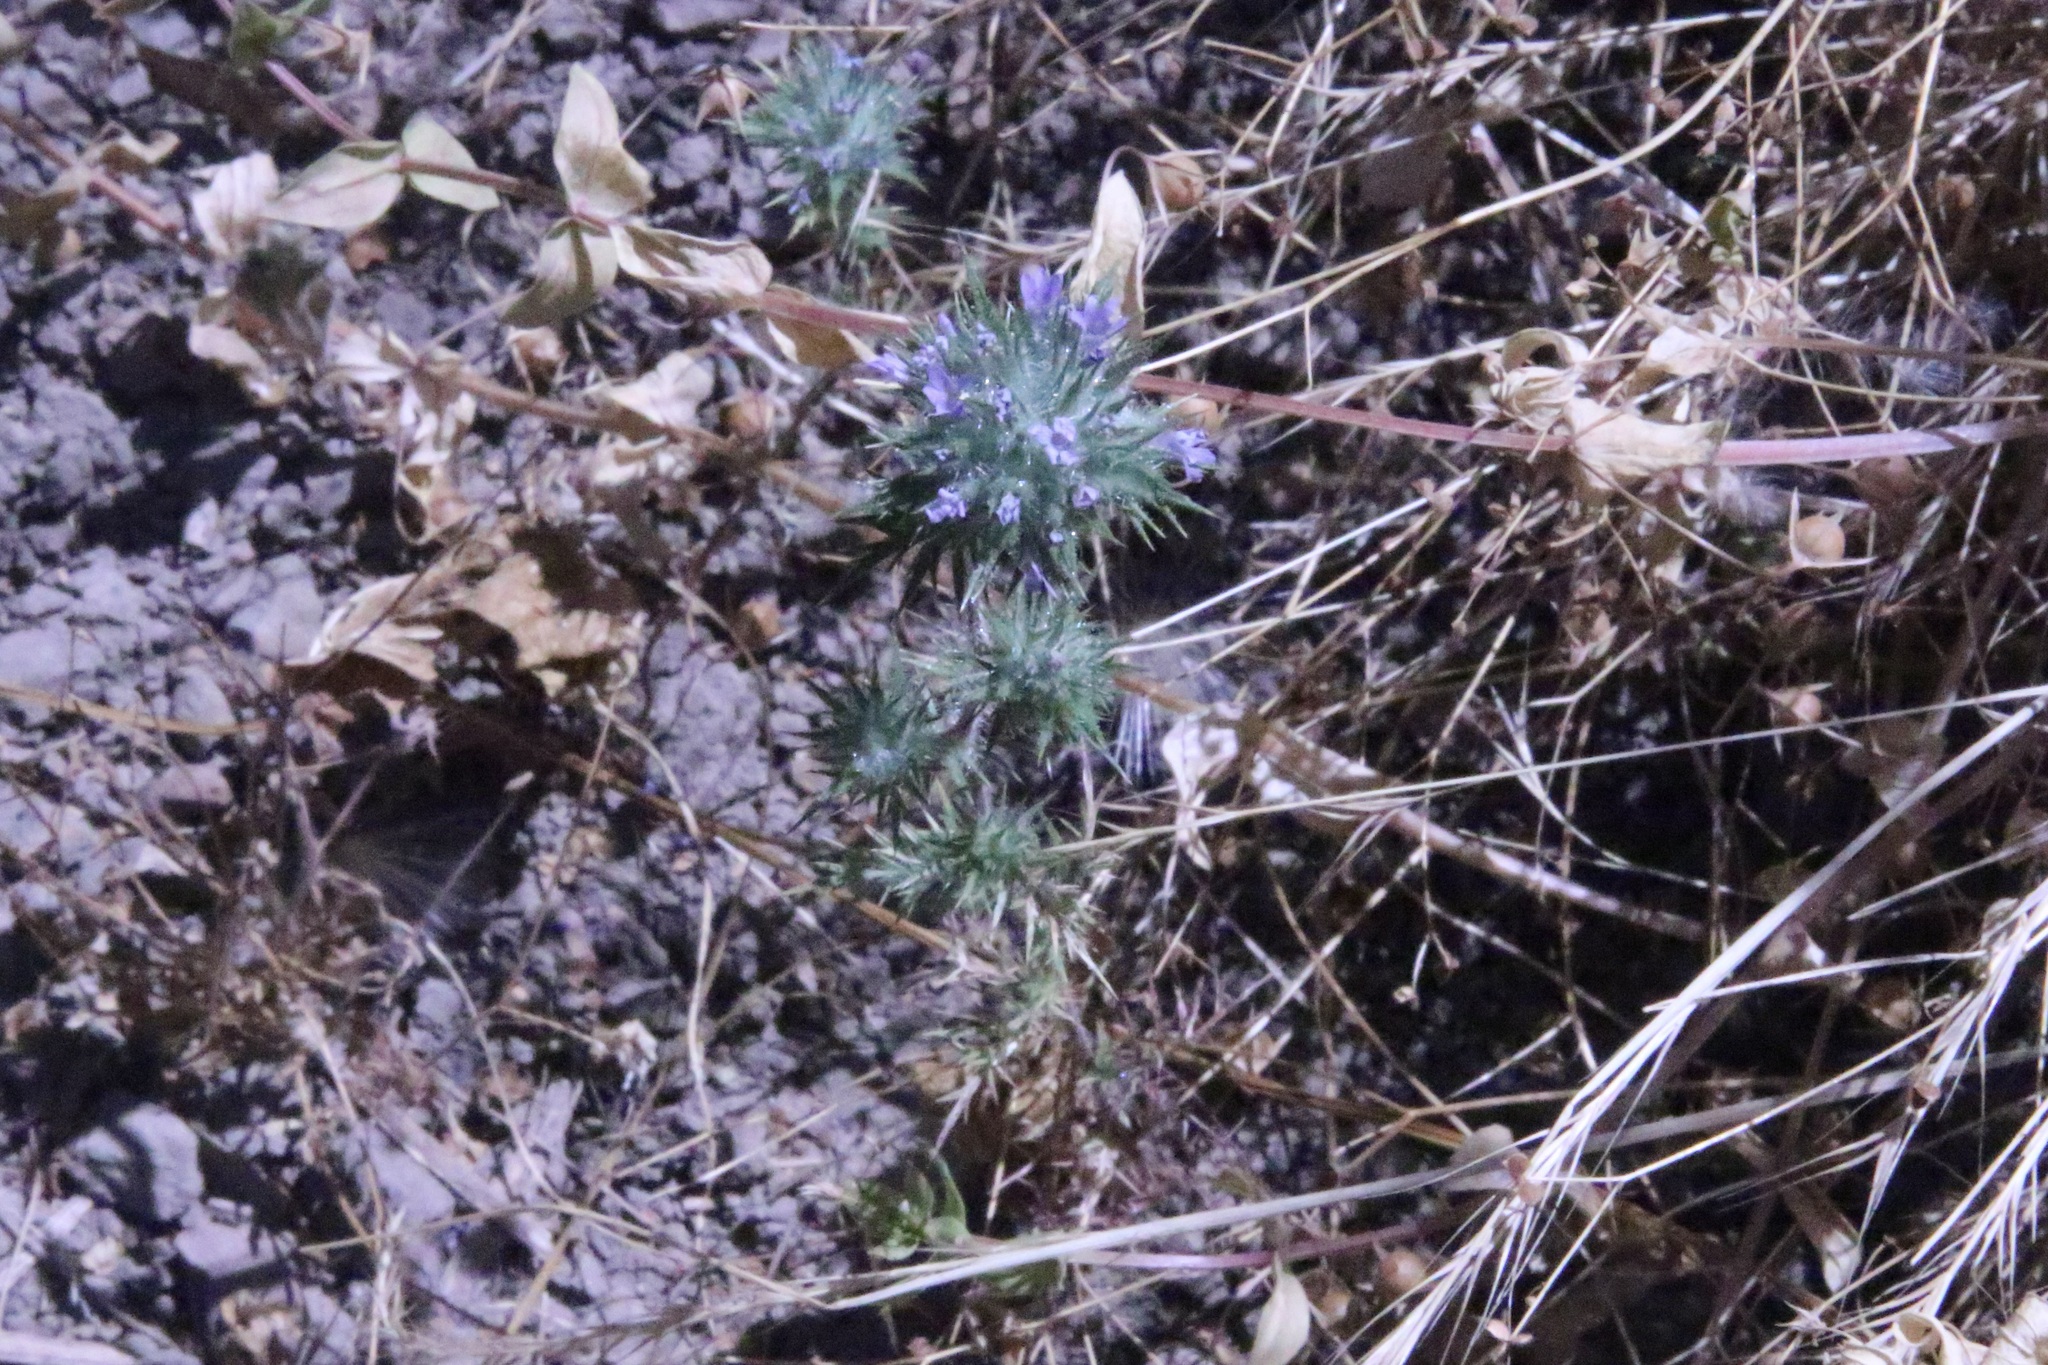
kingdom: Plantae
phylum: Tracheophyta
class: Magnoliopsida
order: Ericales
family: Polemoniaceae
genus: Navarretia
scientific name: Navarretia squarrosa
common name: Skunkweed
